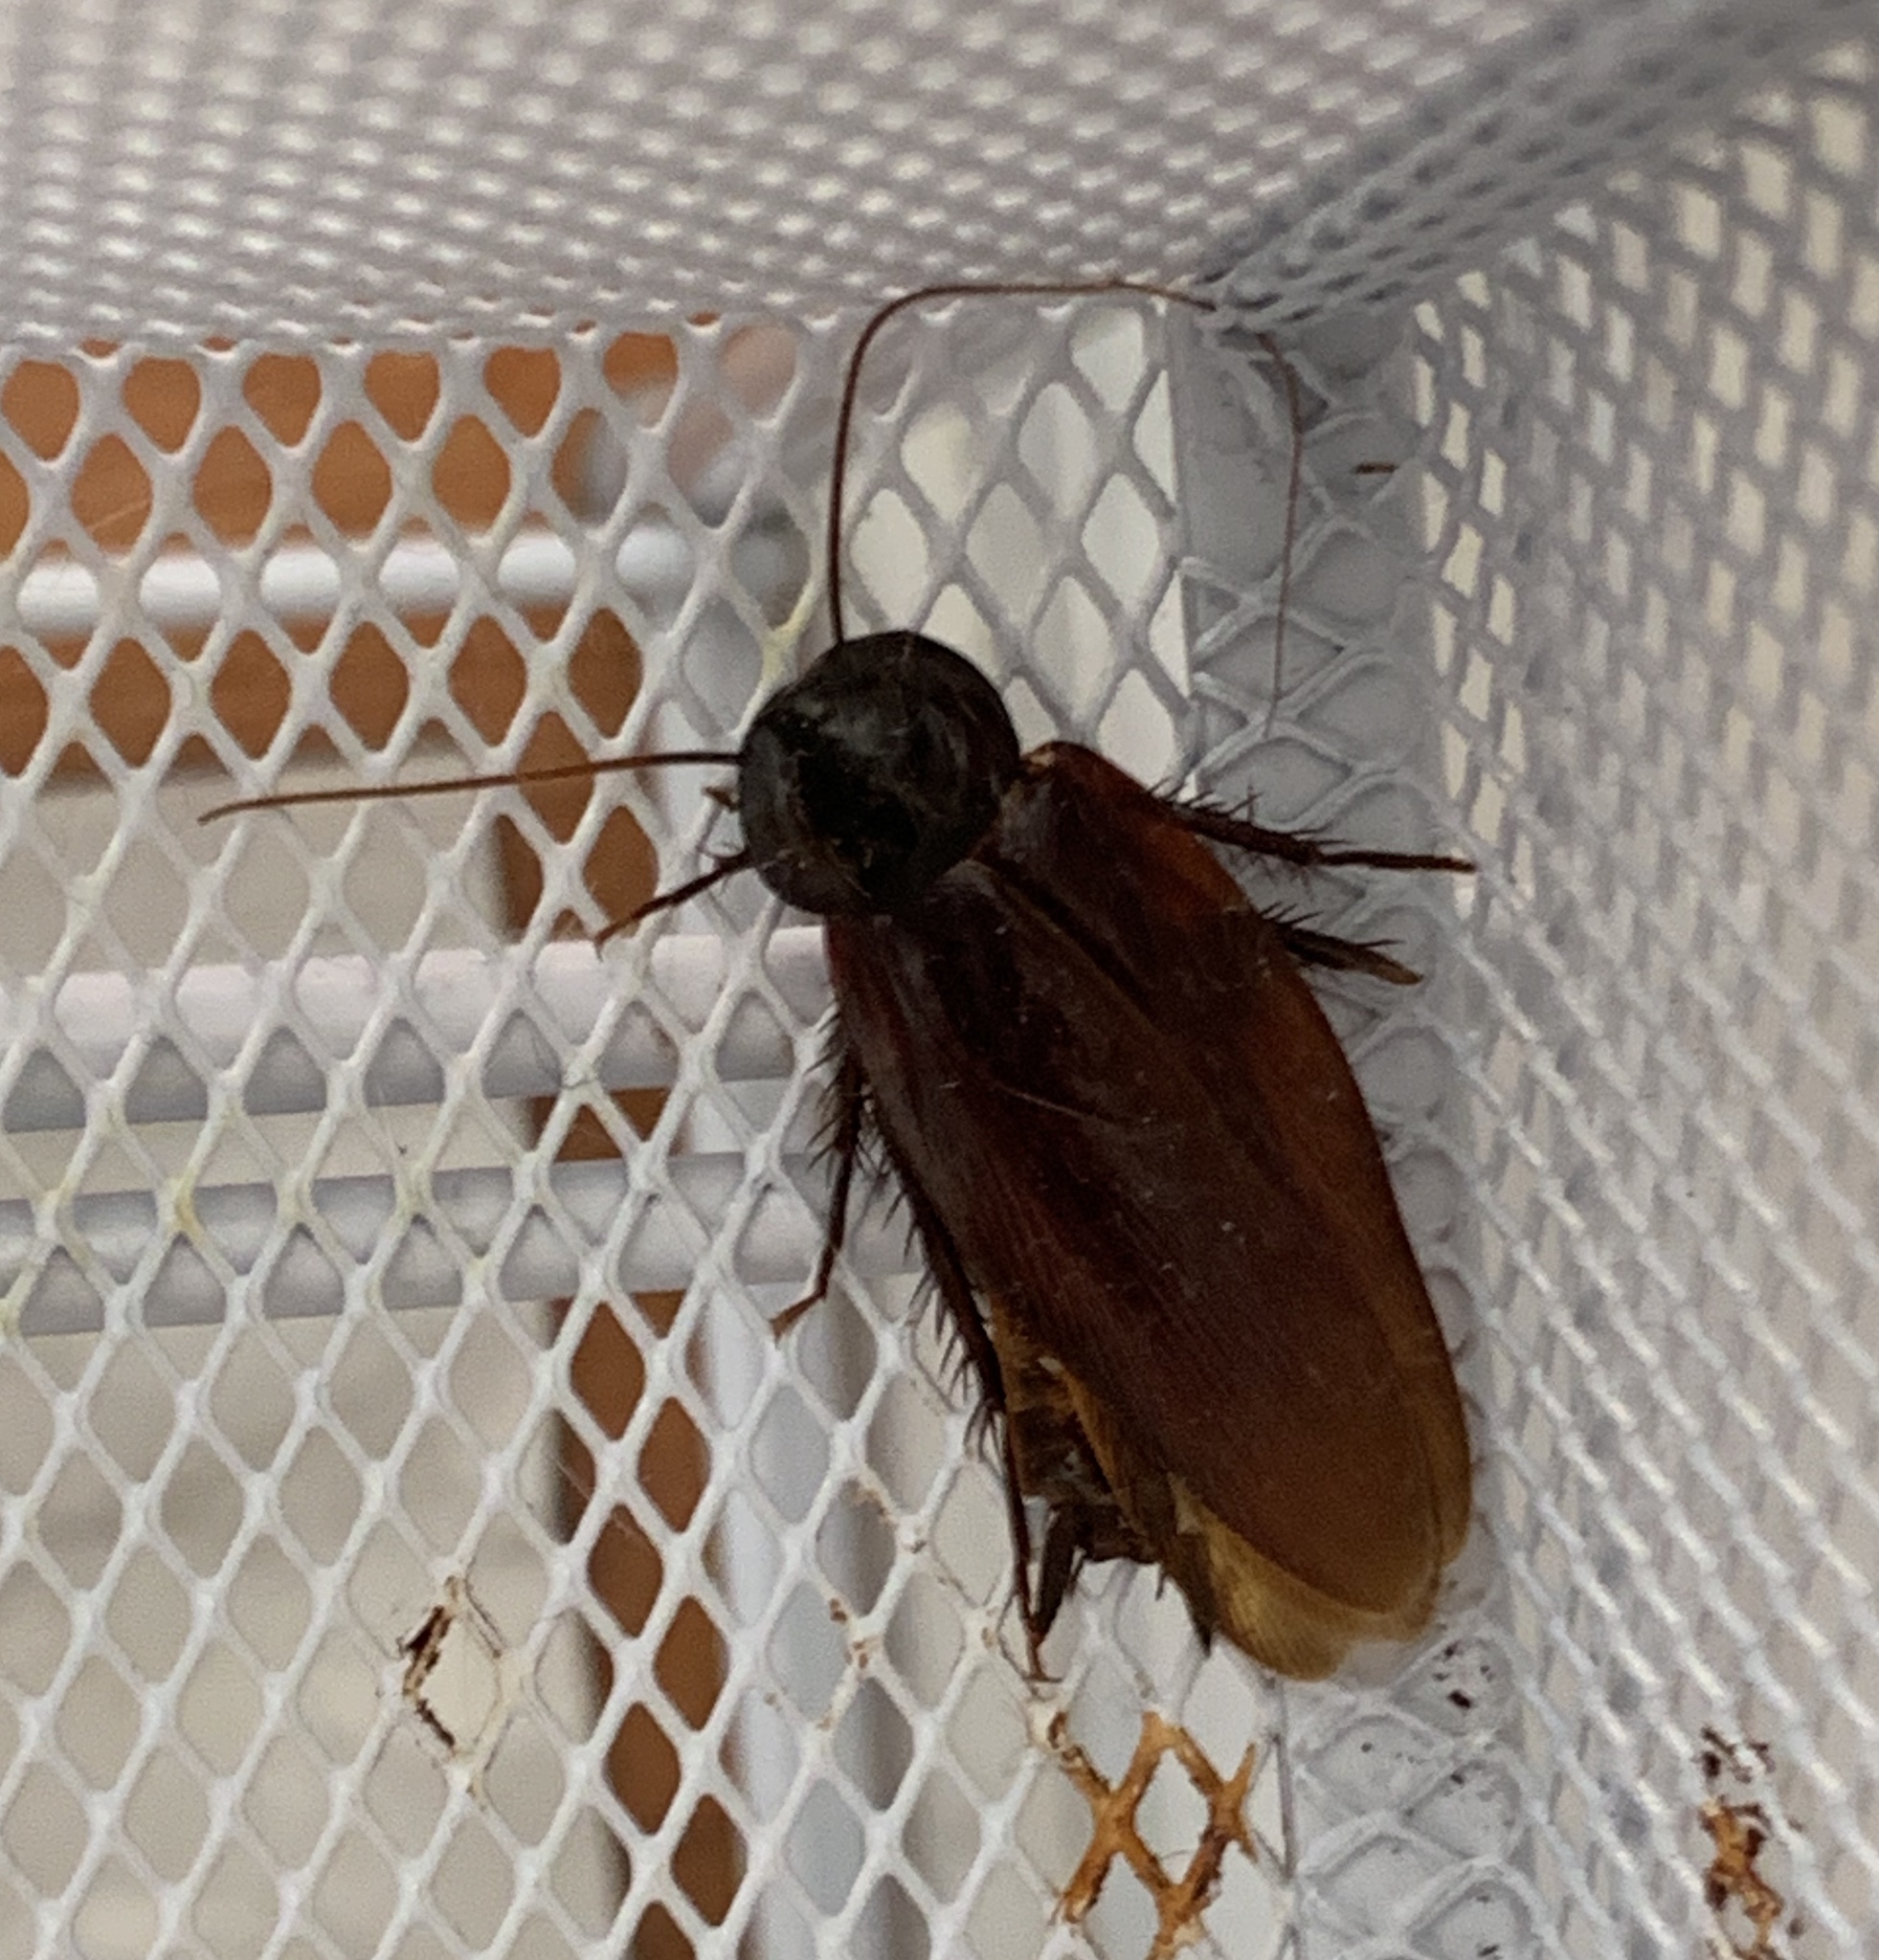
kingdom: Animalia
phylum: Arthropoda
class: Insecta
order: Blattodea
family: Blattidae
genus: Periplaneta
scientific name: Periplaneta fuliginosa
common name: Smokeybrown cockroad
